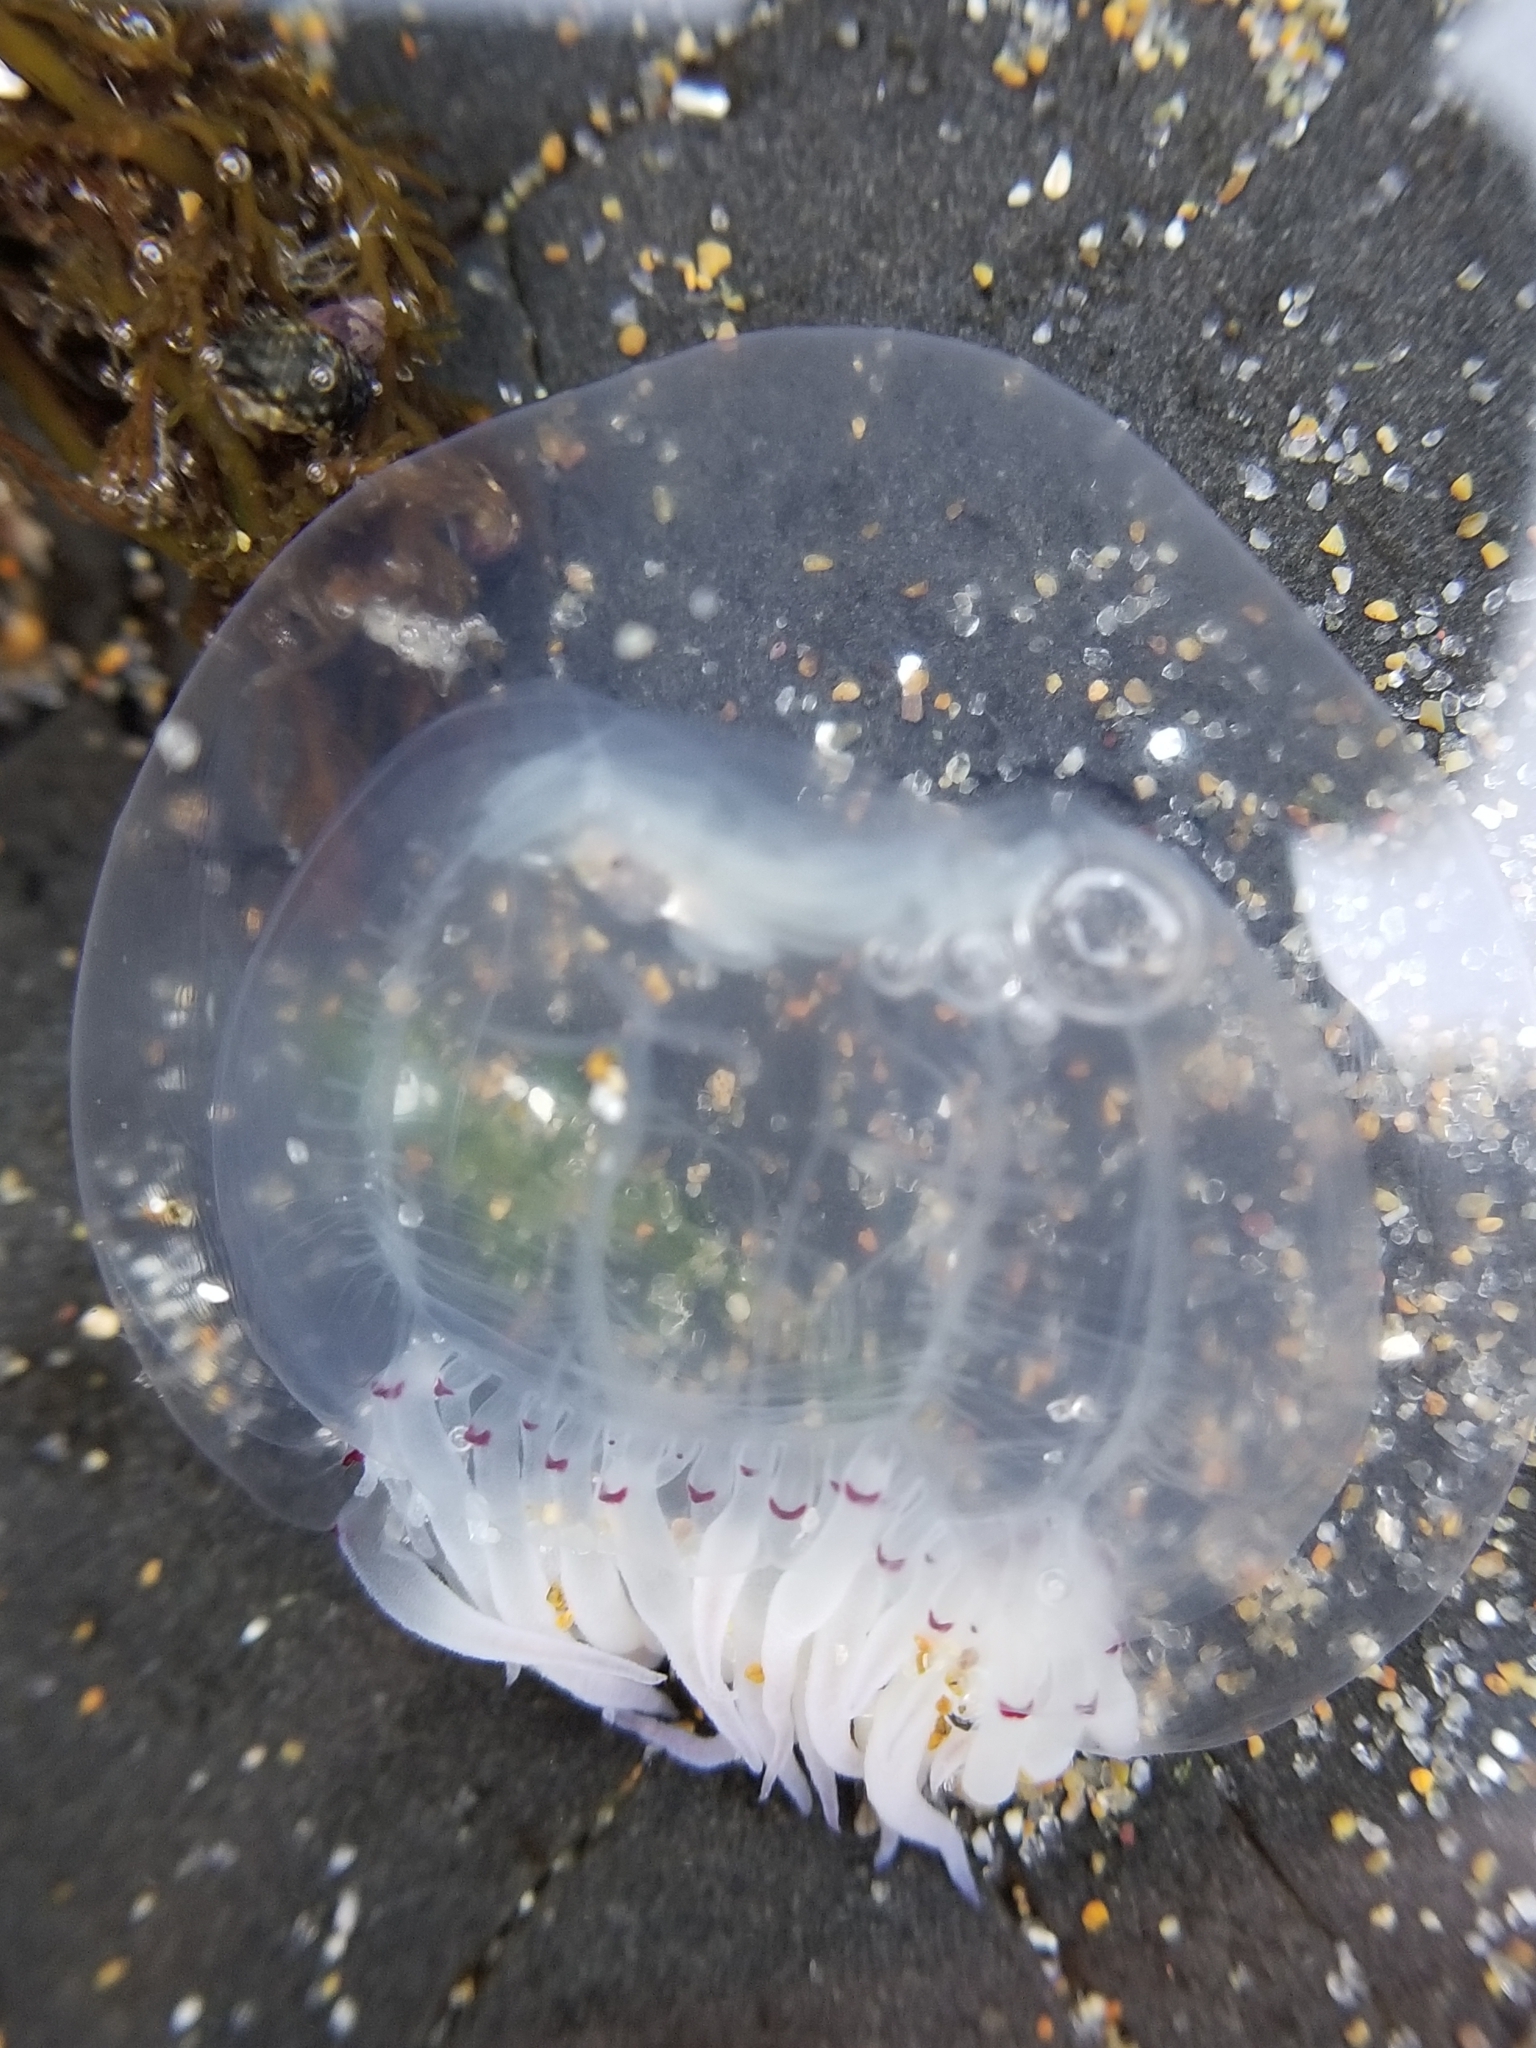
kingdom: Animalia
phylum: Cnidaria
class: Hydrozoa
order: Anthoathecata
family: Corynidae
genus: Polyorchis
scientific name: Polyorchis penicillatus
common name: Penicillate jellyfish
